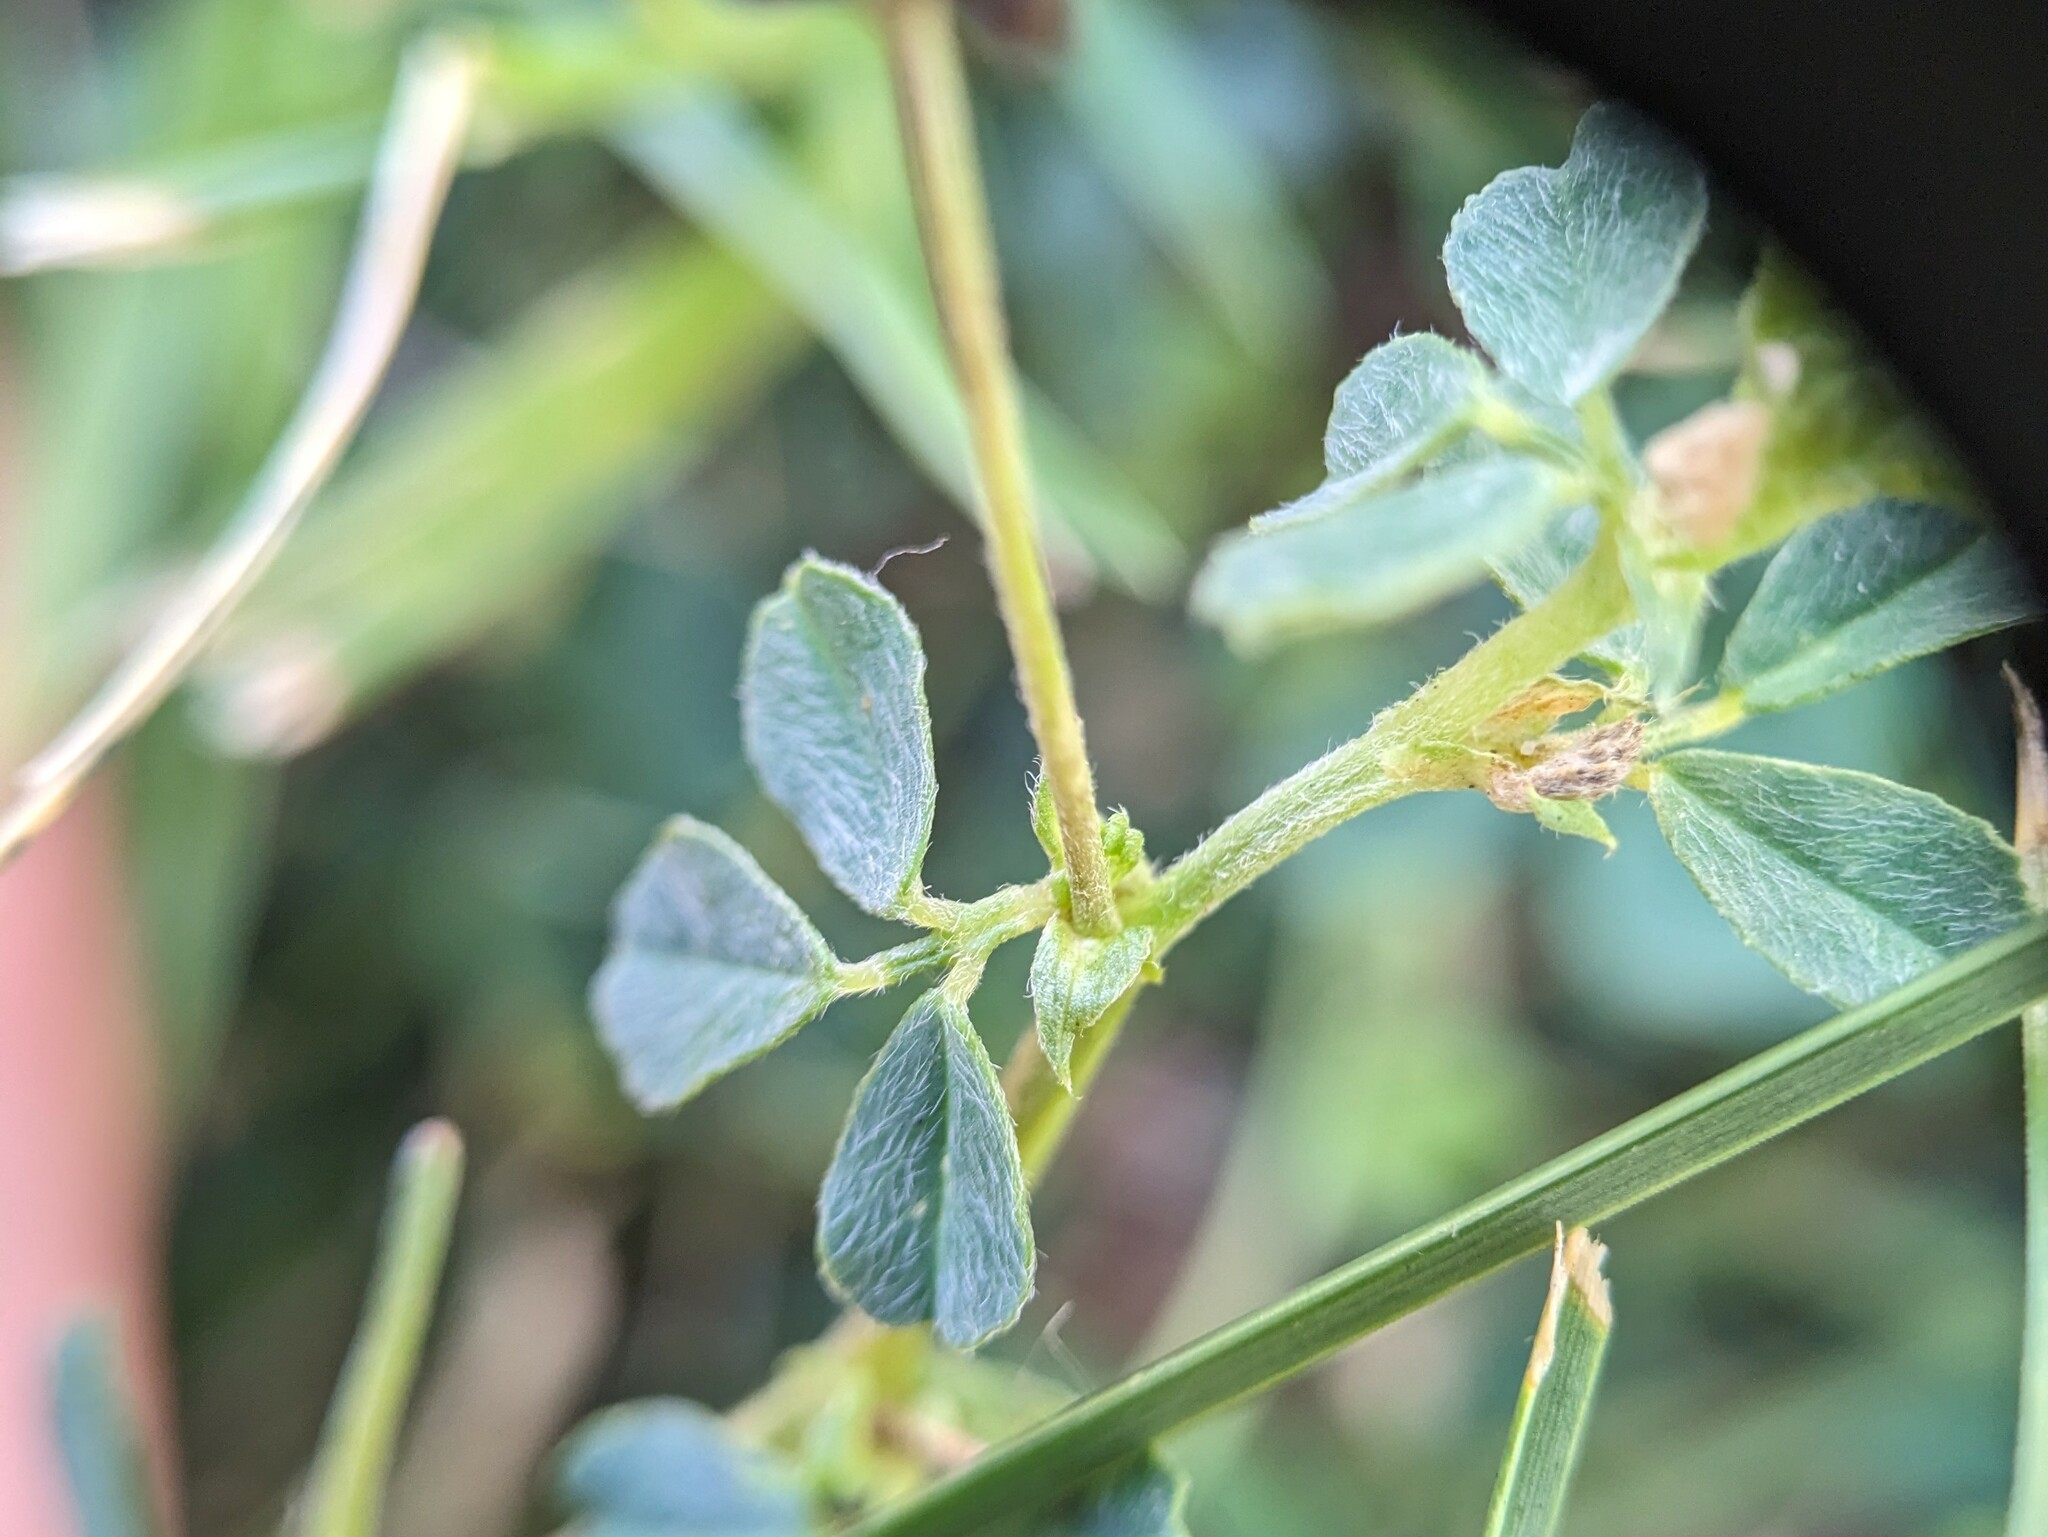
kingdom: Plantae
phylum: Tracheophyta
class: Magnoliopsida
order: Fabales
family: Fabaceae
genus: Medicago
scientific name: Medicago lupulina
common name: Black medick
